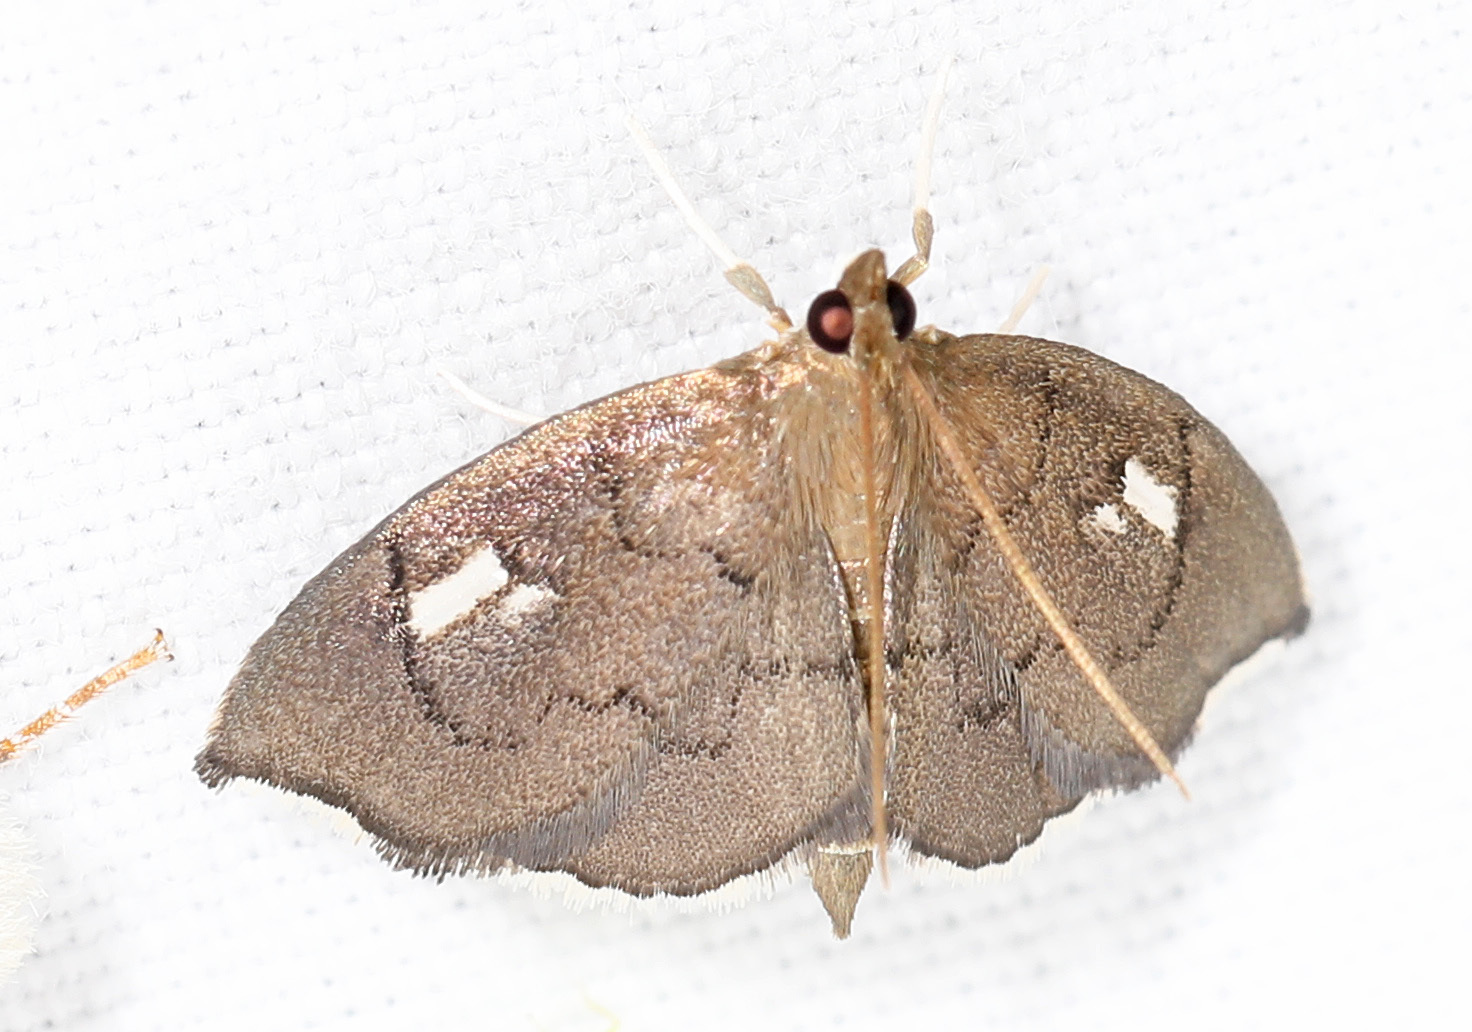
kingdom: Animalia
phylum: Arthropoda
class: Insecta
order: Lepidoptera
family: Crambidae
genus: Perispasta
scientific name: Perispasta caeculalis
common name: Titian peale's moth
